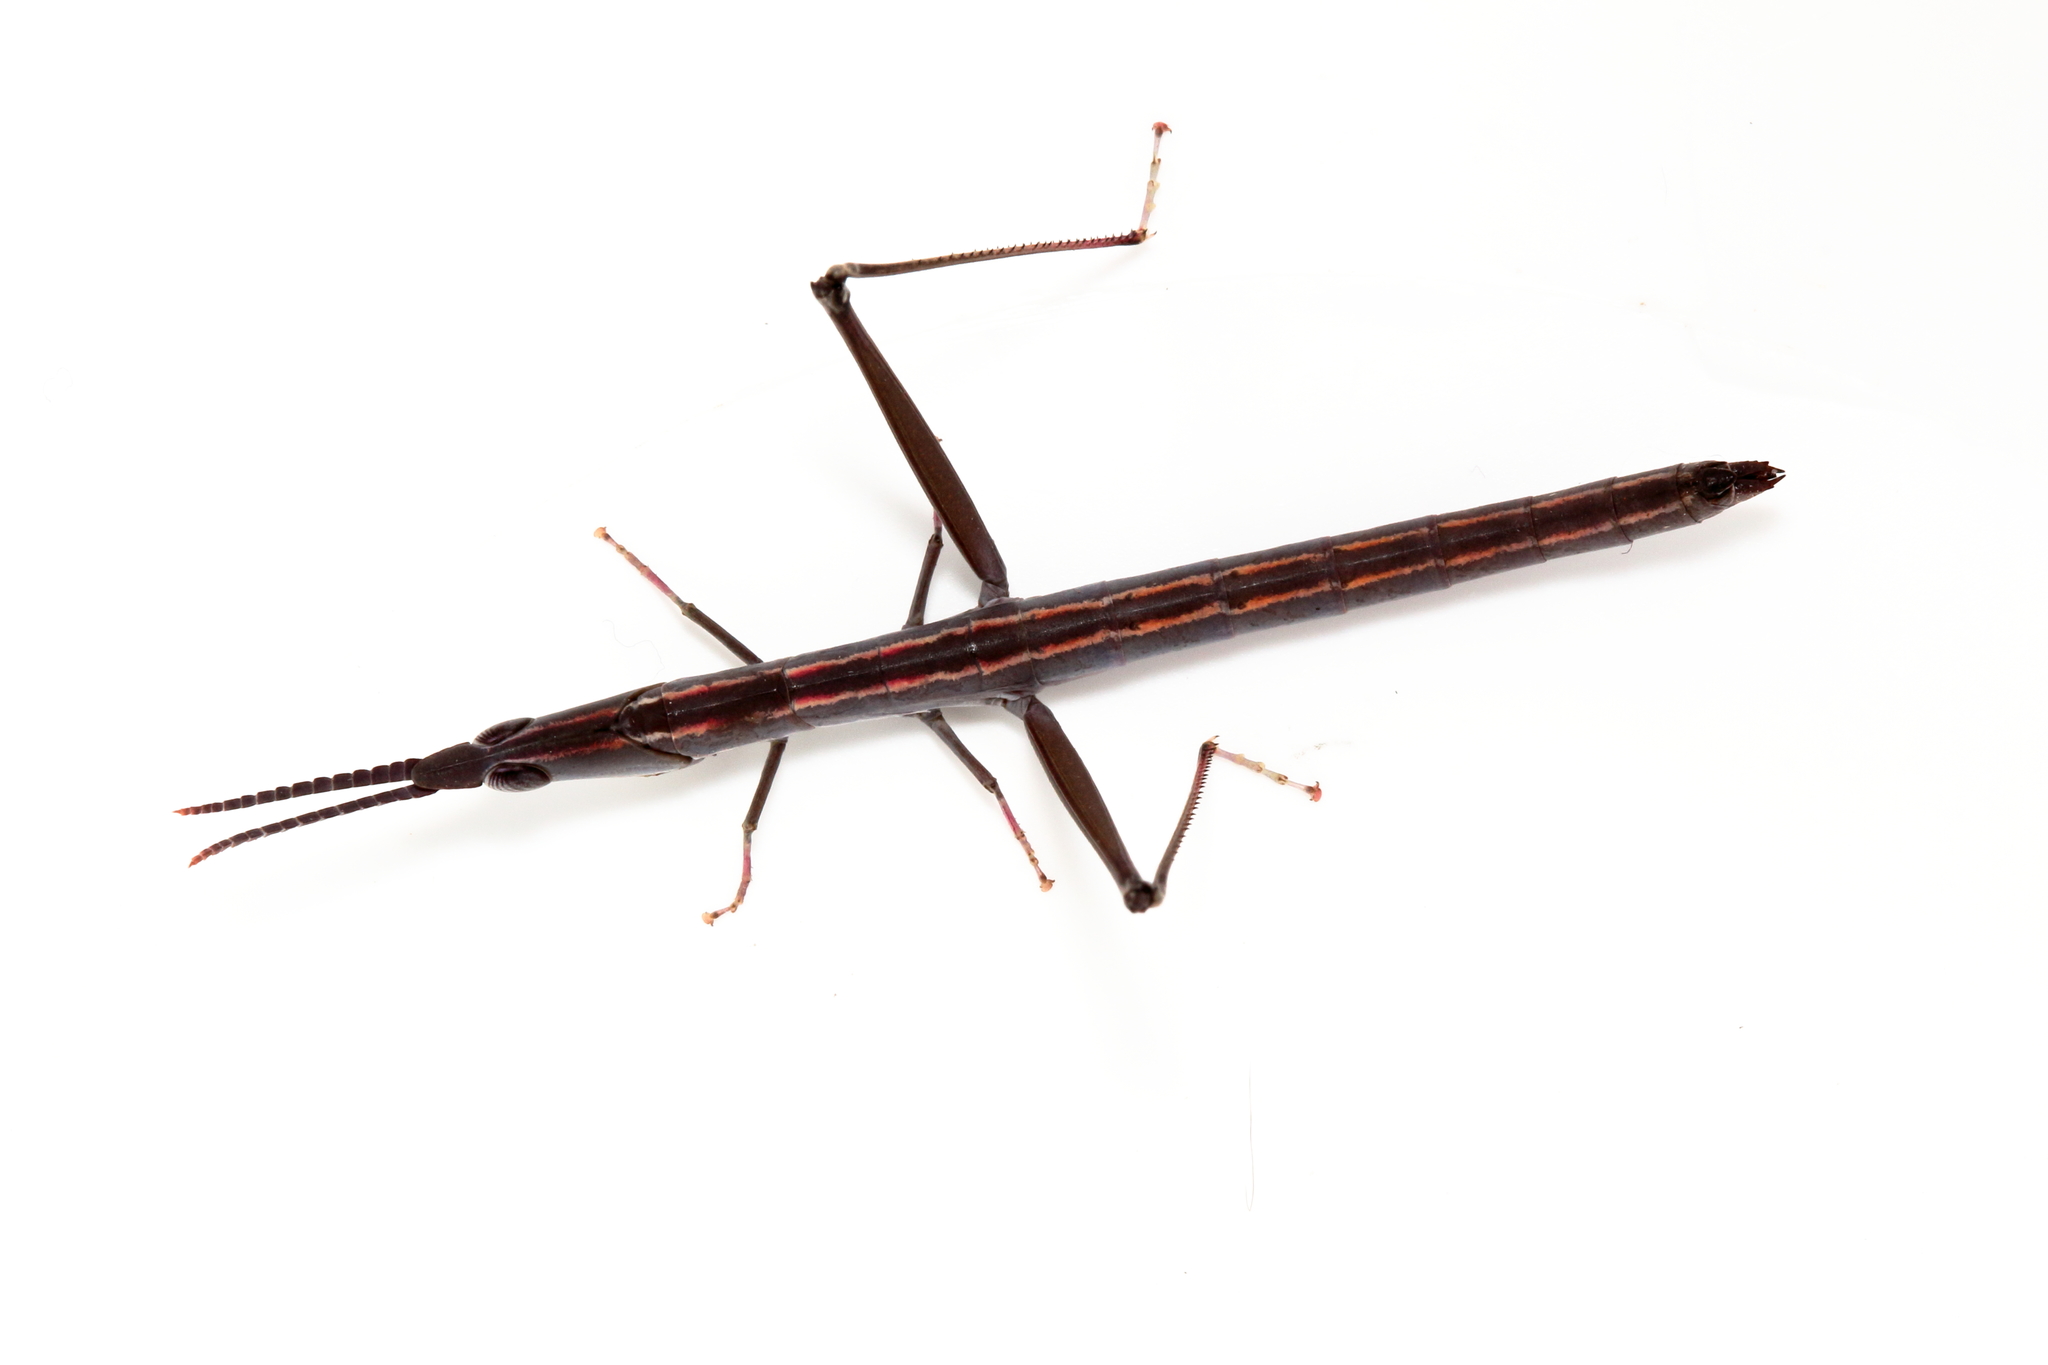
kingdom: Animalia
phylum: Arthropoda
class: Insecta
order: Orthoptera
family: Morabidae
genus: Warramaba
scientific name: Warramaba whitei
